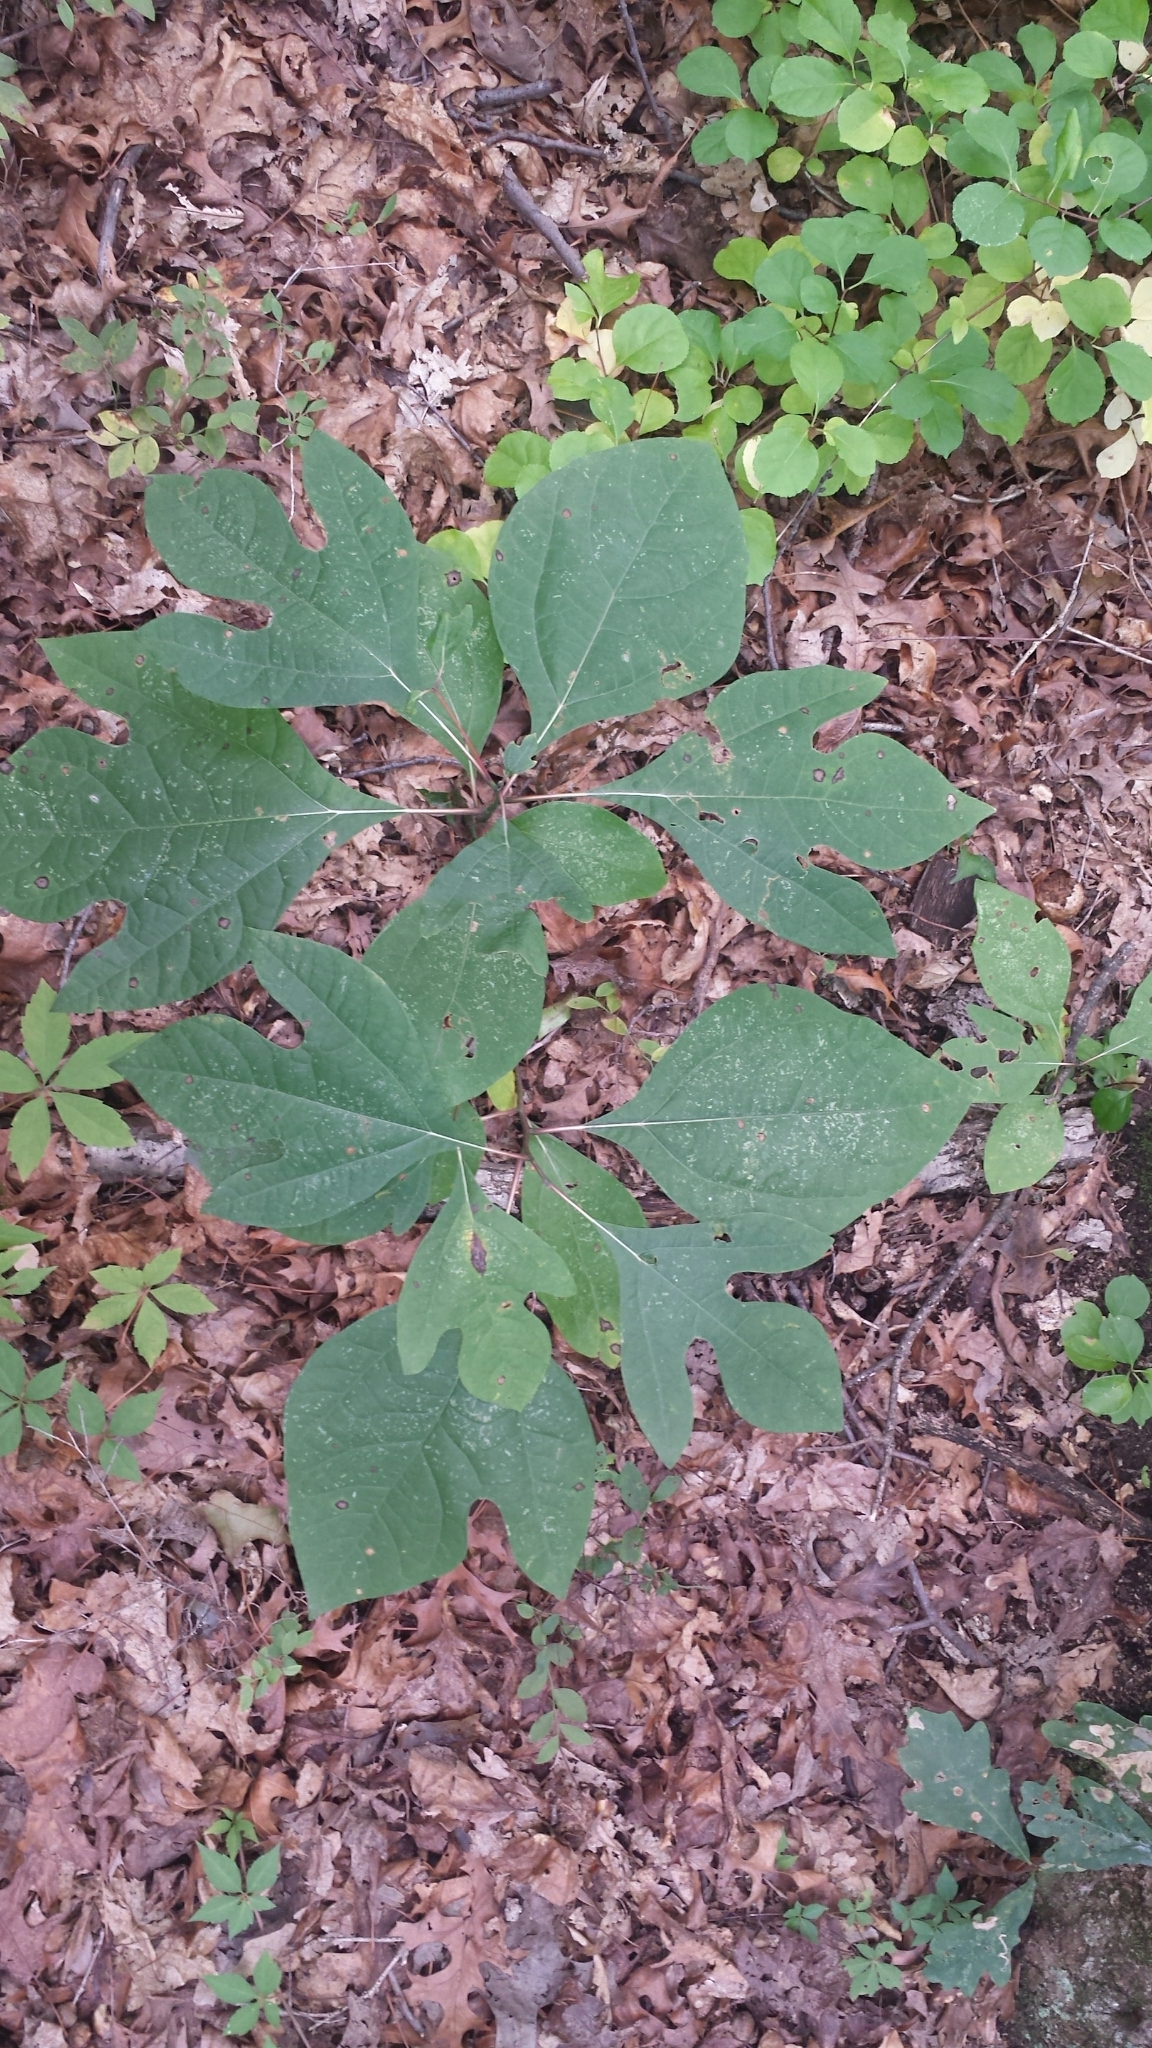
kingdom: Plantae
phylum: Tracheophyta
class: Magnoliopsida
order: Laurales
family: Lauraceae
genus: Sassafras
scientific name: Sassafras albidum
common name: Sassafras
